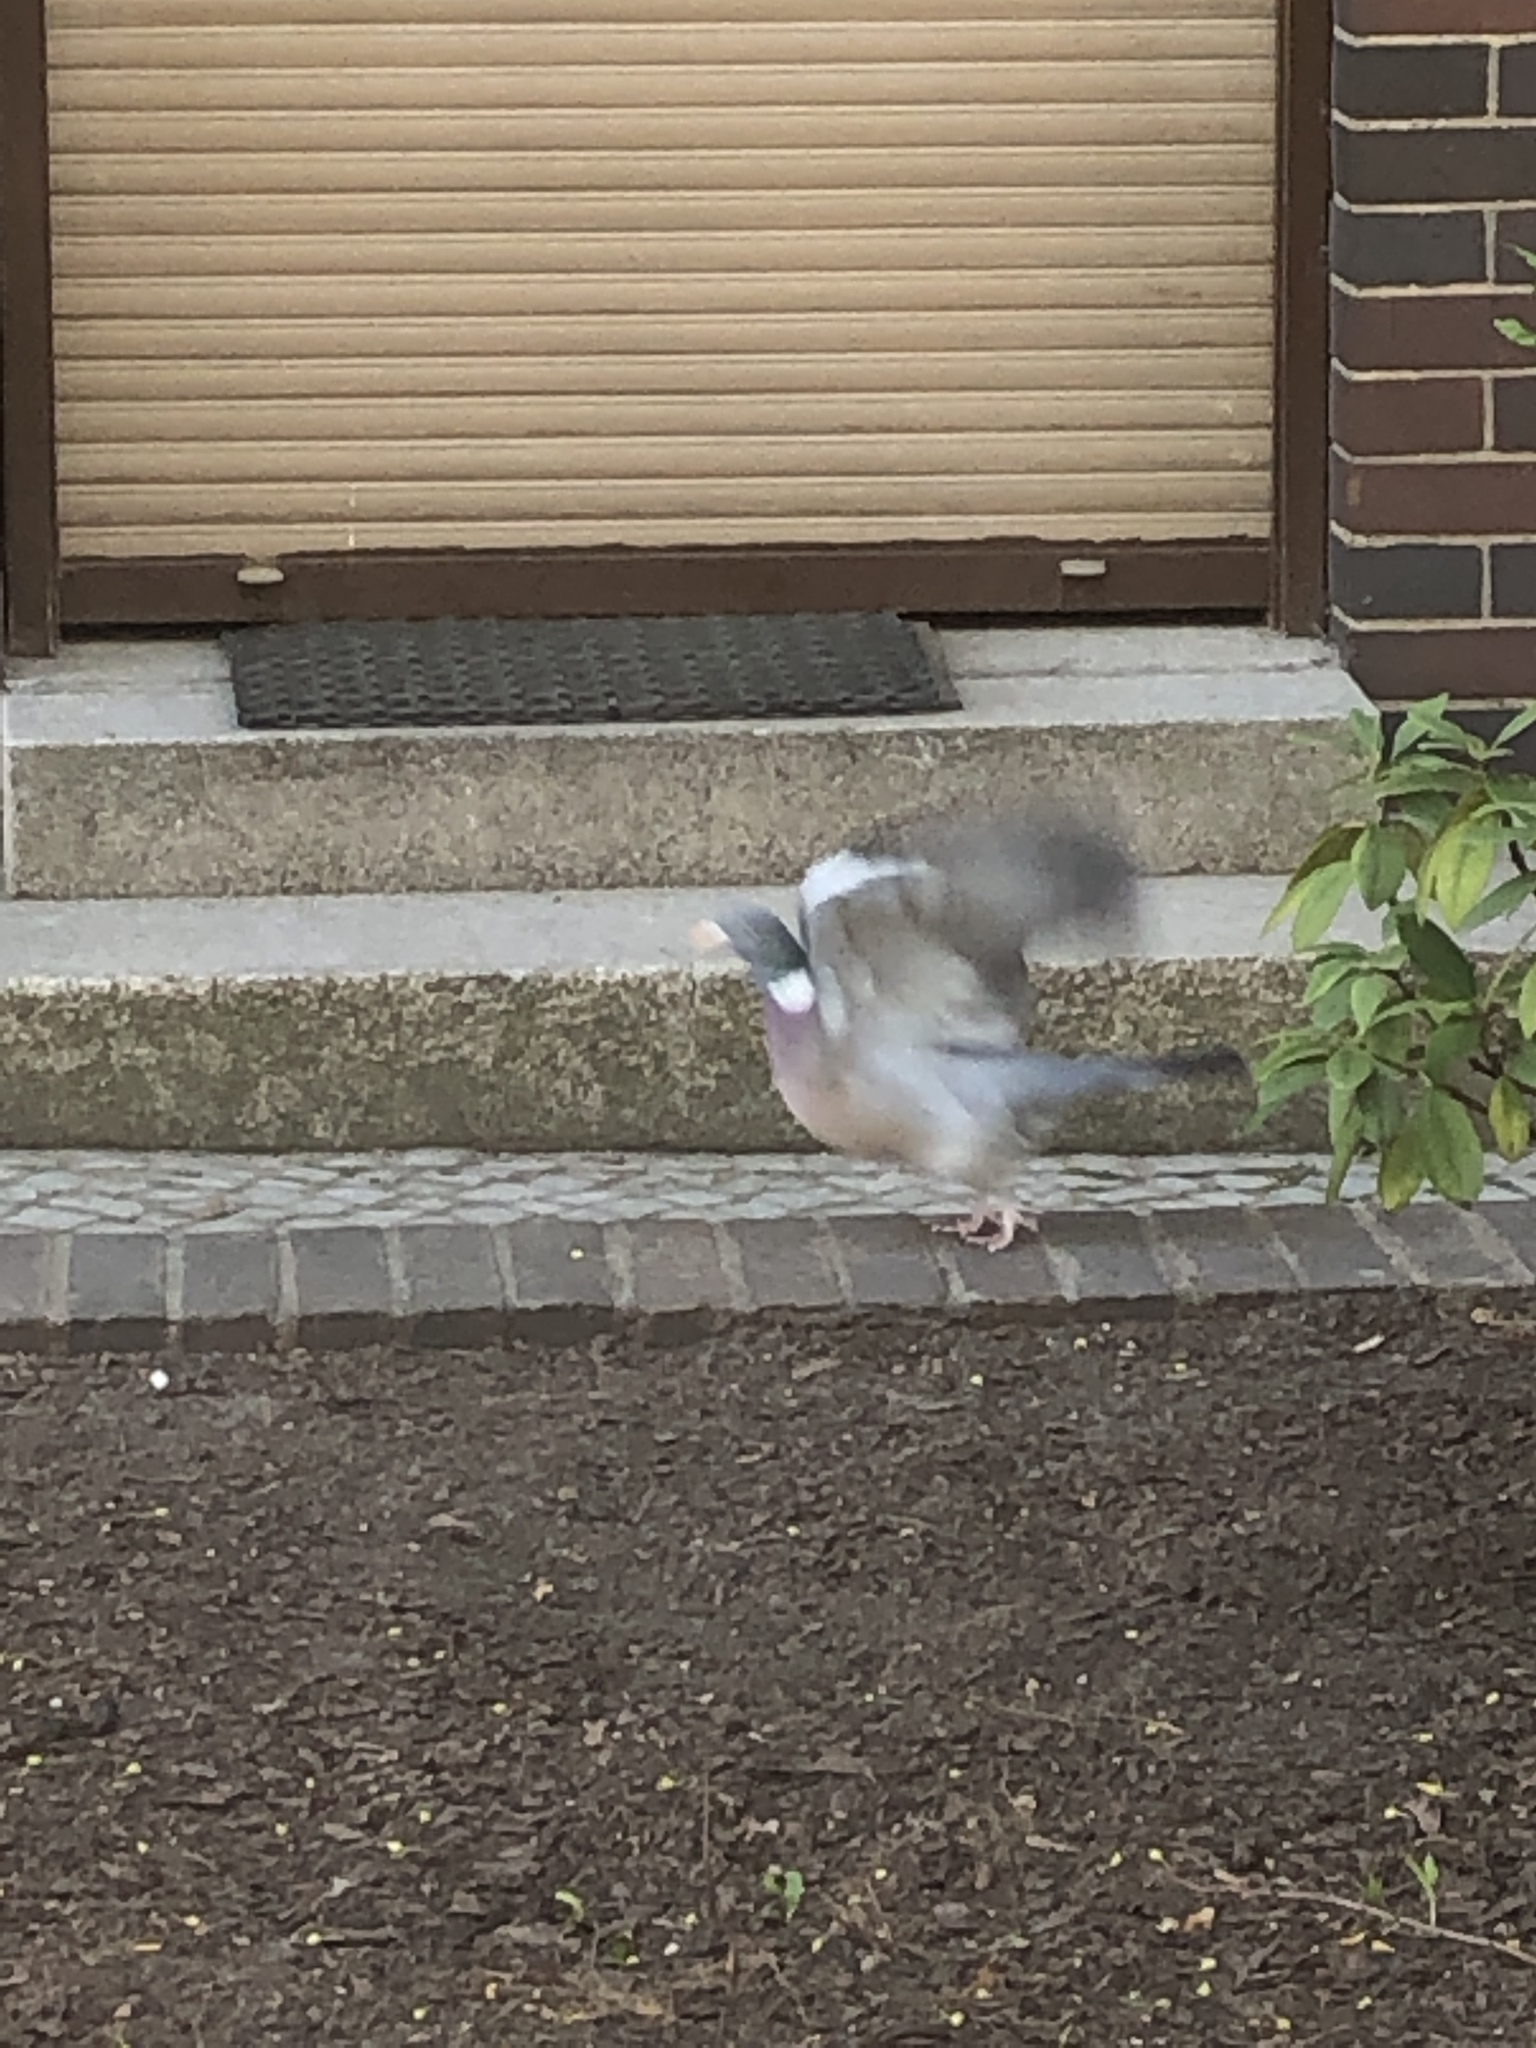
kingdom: Animalia
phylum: Chordata
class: Aves
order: Columbiformes
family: Columbidae
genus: Columba
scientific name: Columba palumbus
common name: Common wood pigeon
